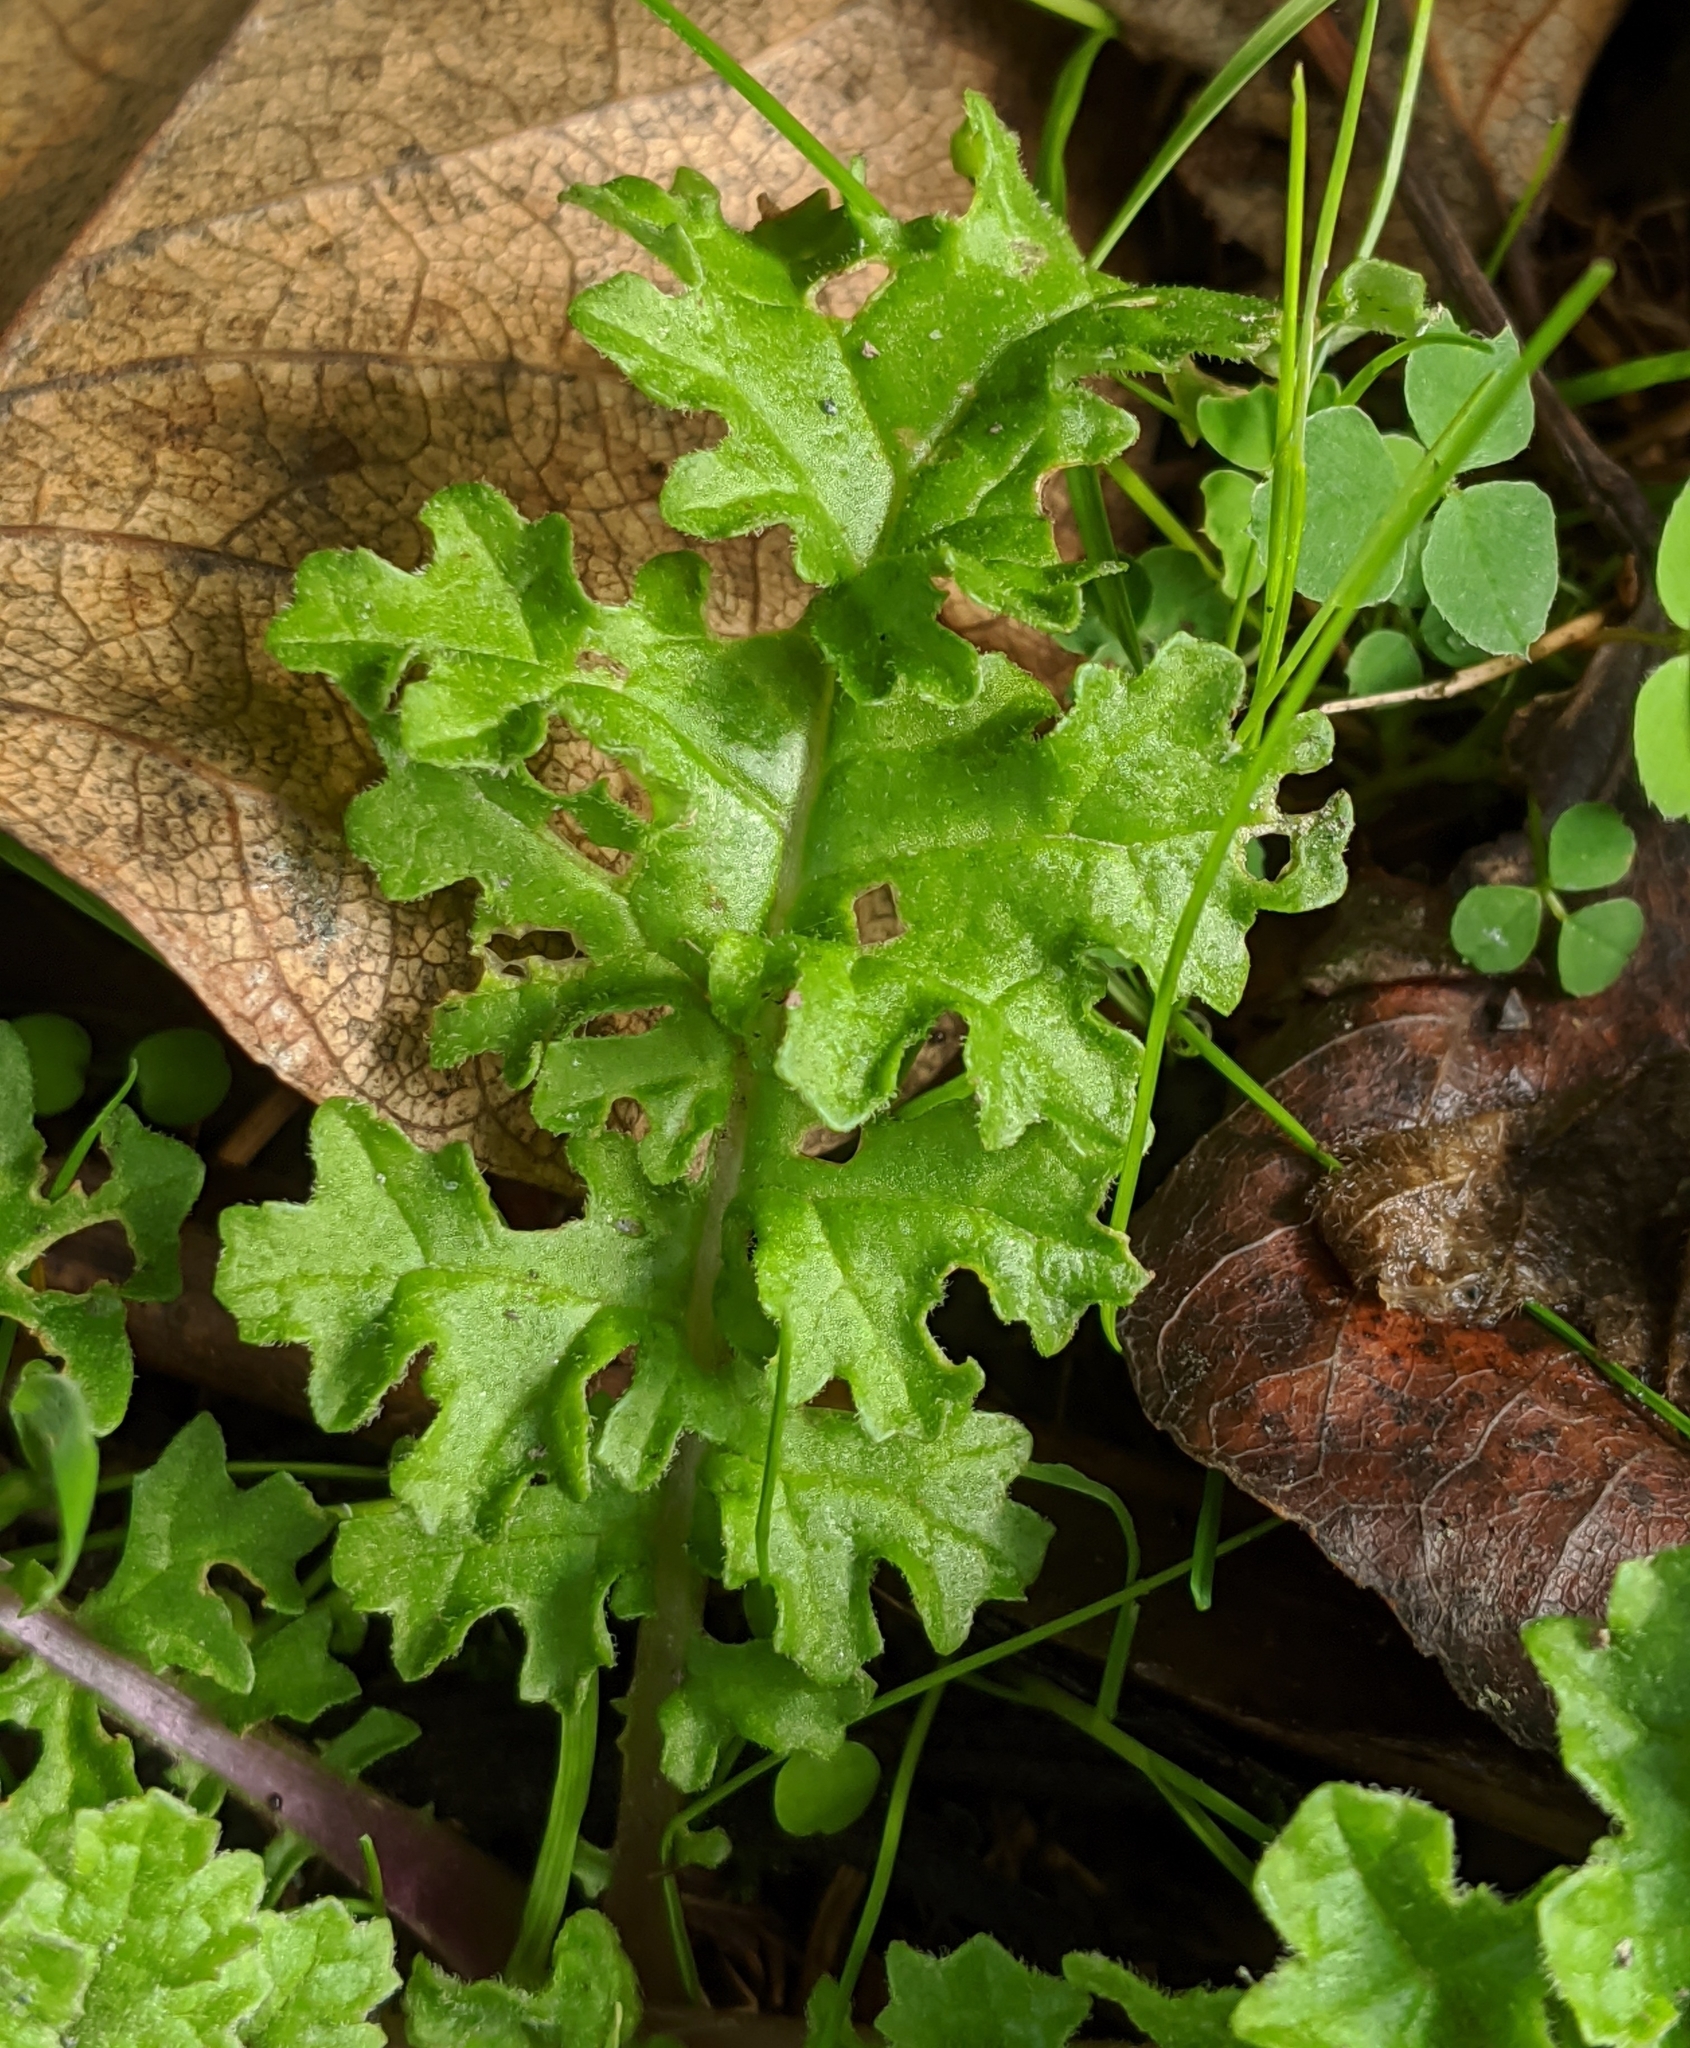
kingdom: Plantae
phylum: Tracheophyta
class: Magnoliopsida
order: Asterales
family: Asteraceae
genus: Jacobaea
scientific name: Jacobaea vulgaris
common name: Stinking willie
